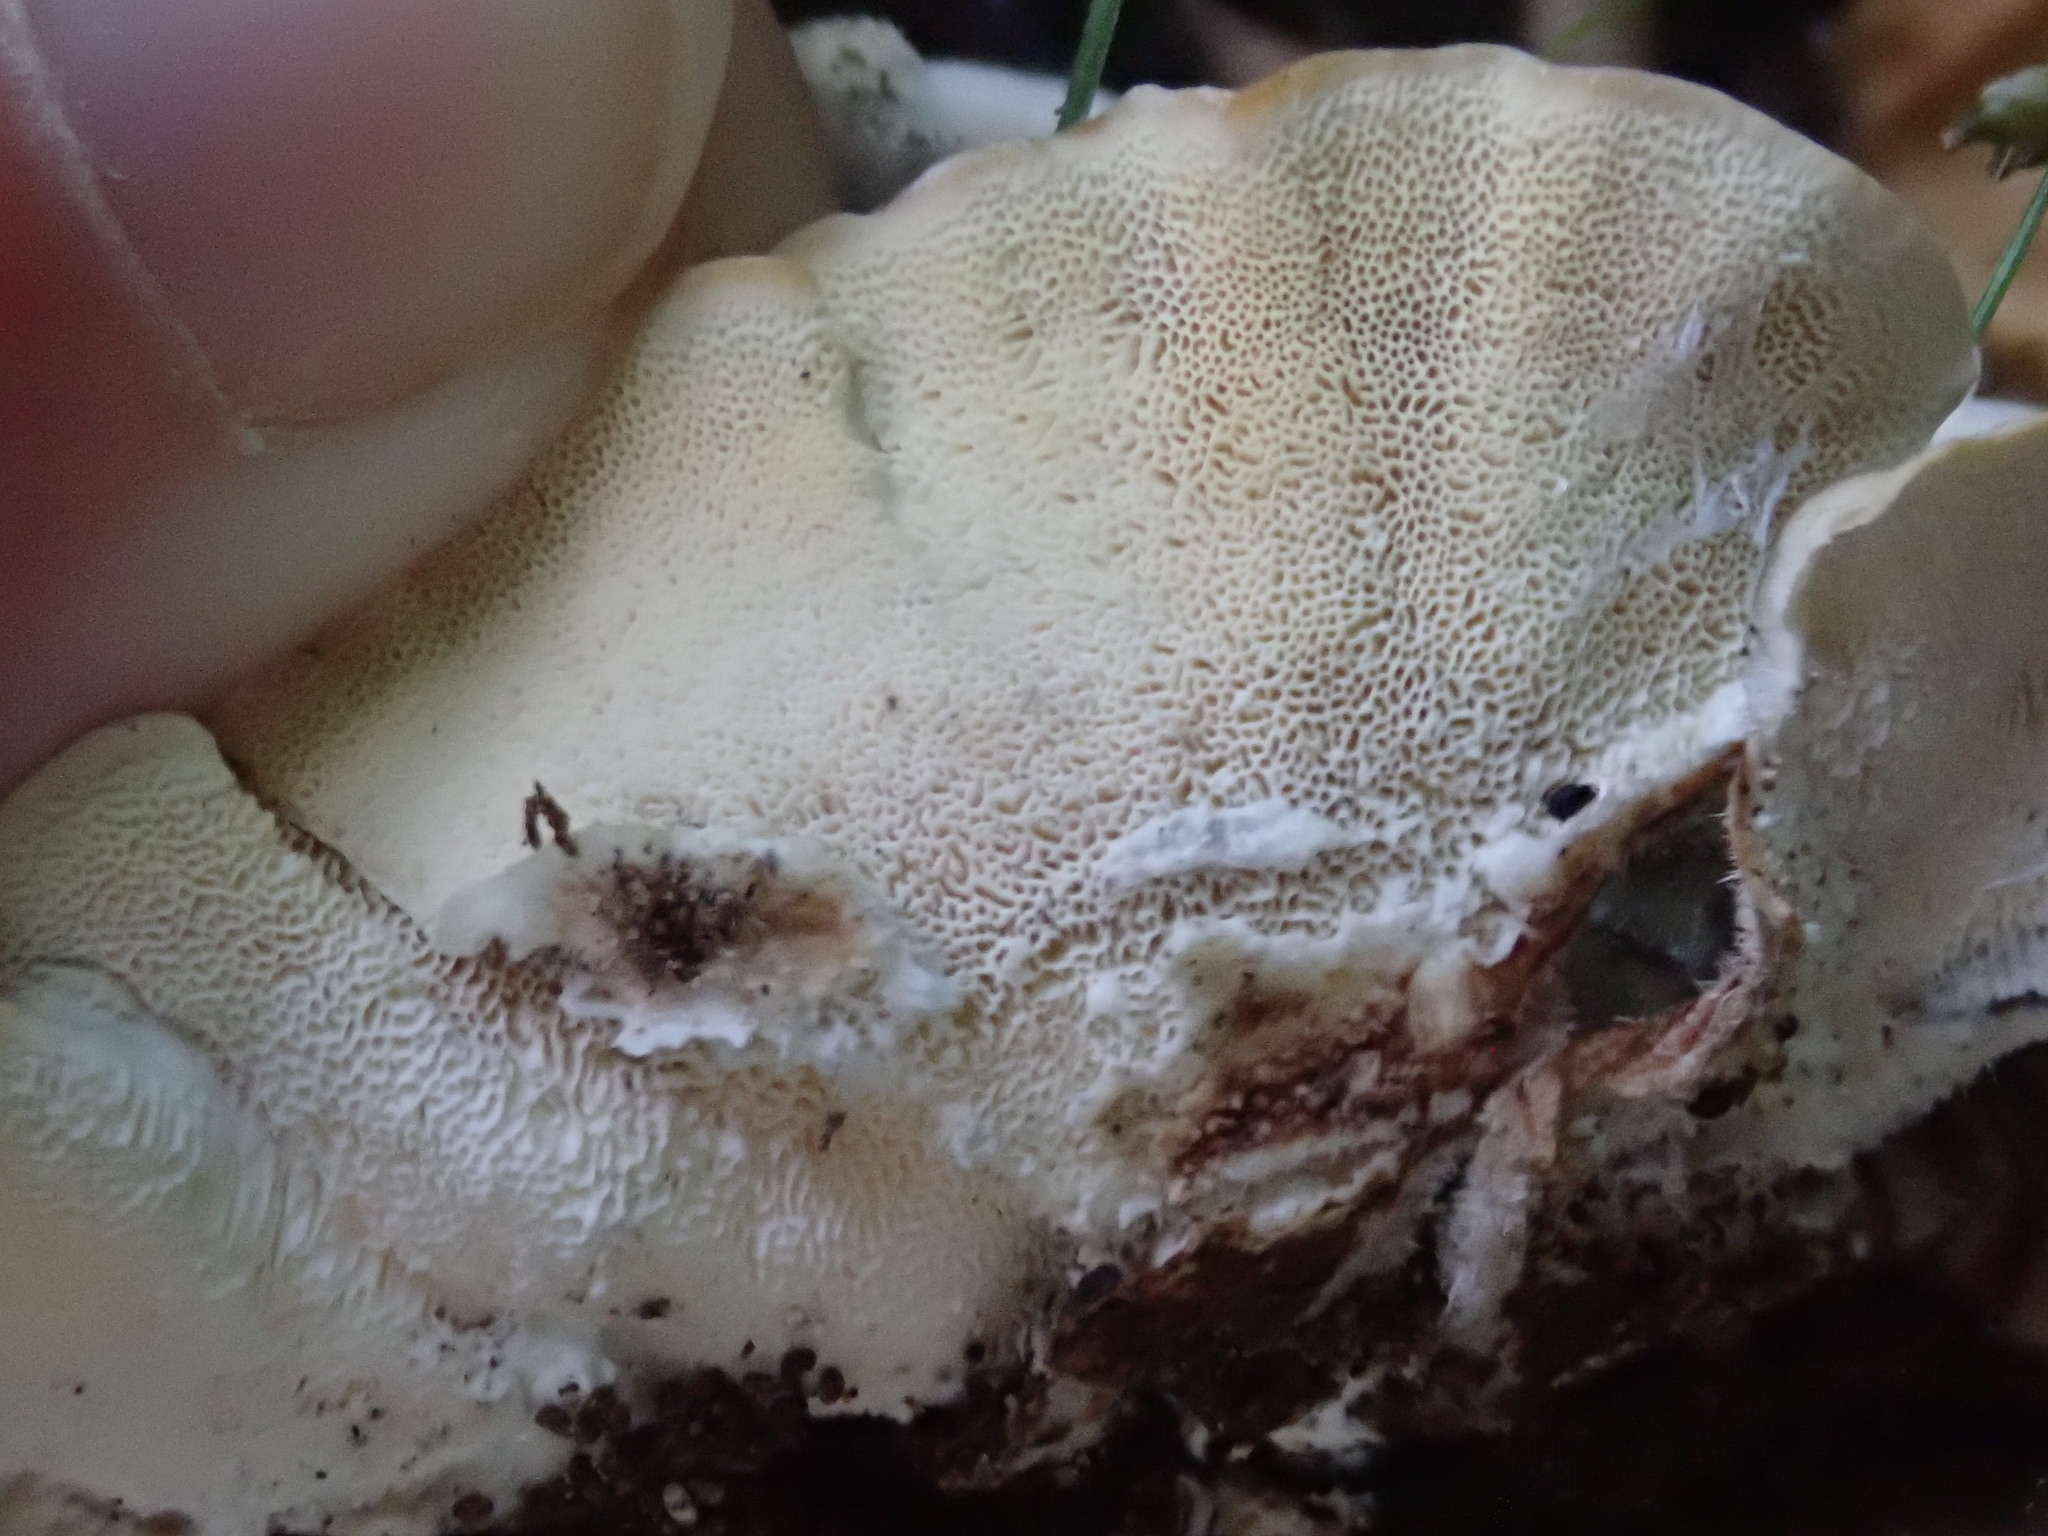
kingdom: Fungi
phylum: Basidiomycota
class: Agaricomycetes
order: Polyporales
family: Polyporaceae
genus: Trametes
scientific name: Trametes versicolor
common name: Turkeytail
